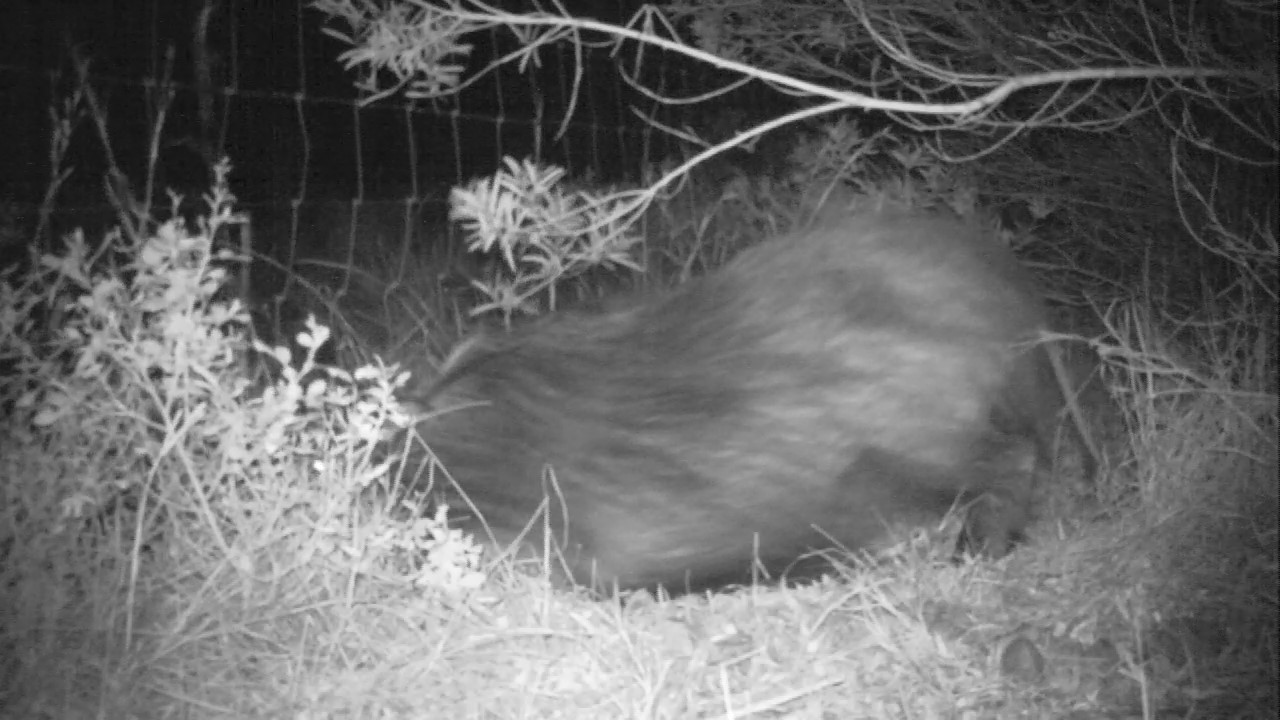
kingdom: Animalia
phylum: Chordata
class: Mammalia
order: Artiodactyla
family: Suidae
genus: Potamochoerus
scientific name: Potamochoerus larvatus
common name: Bushpig
